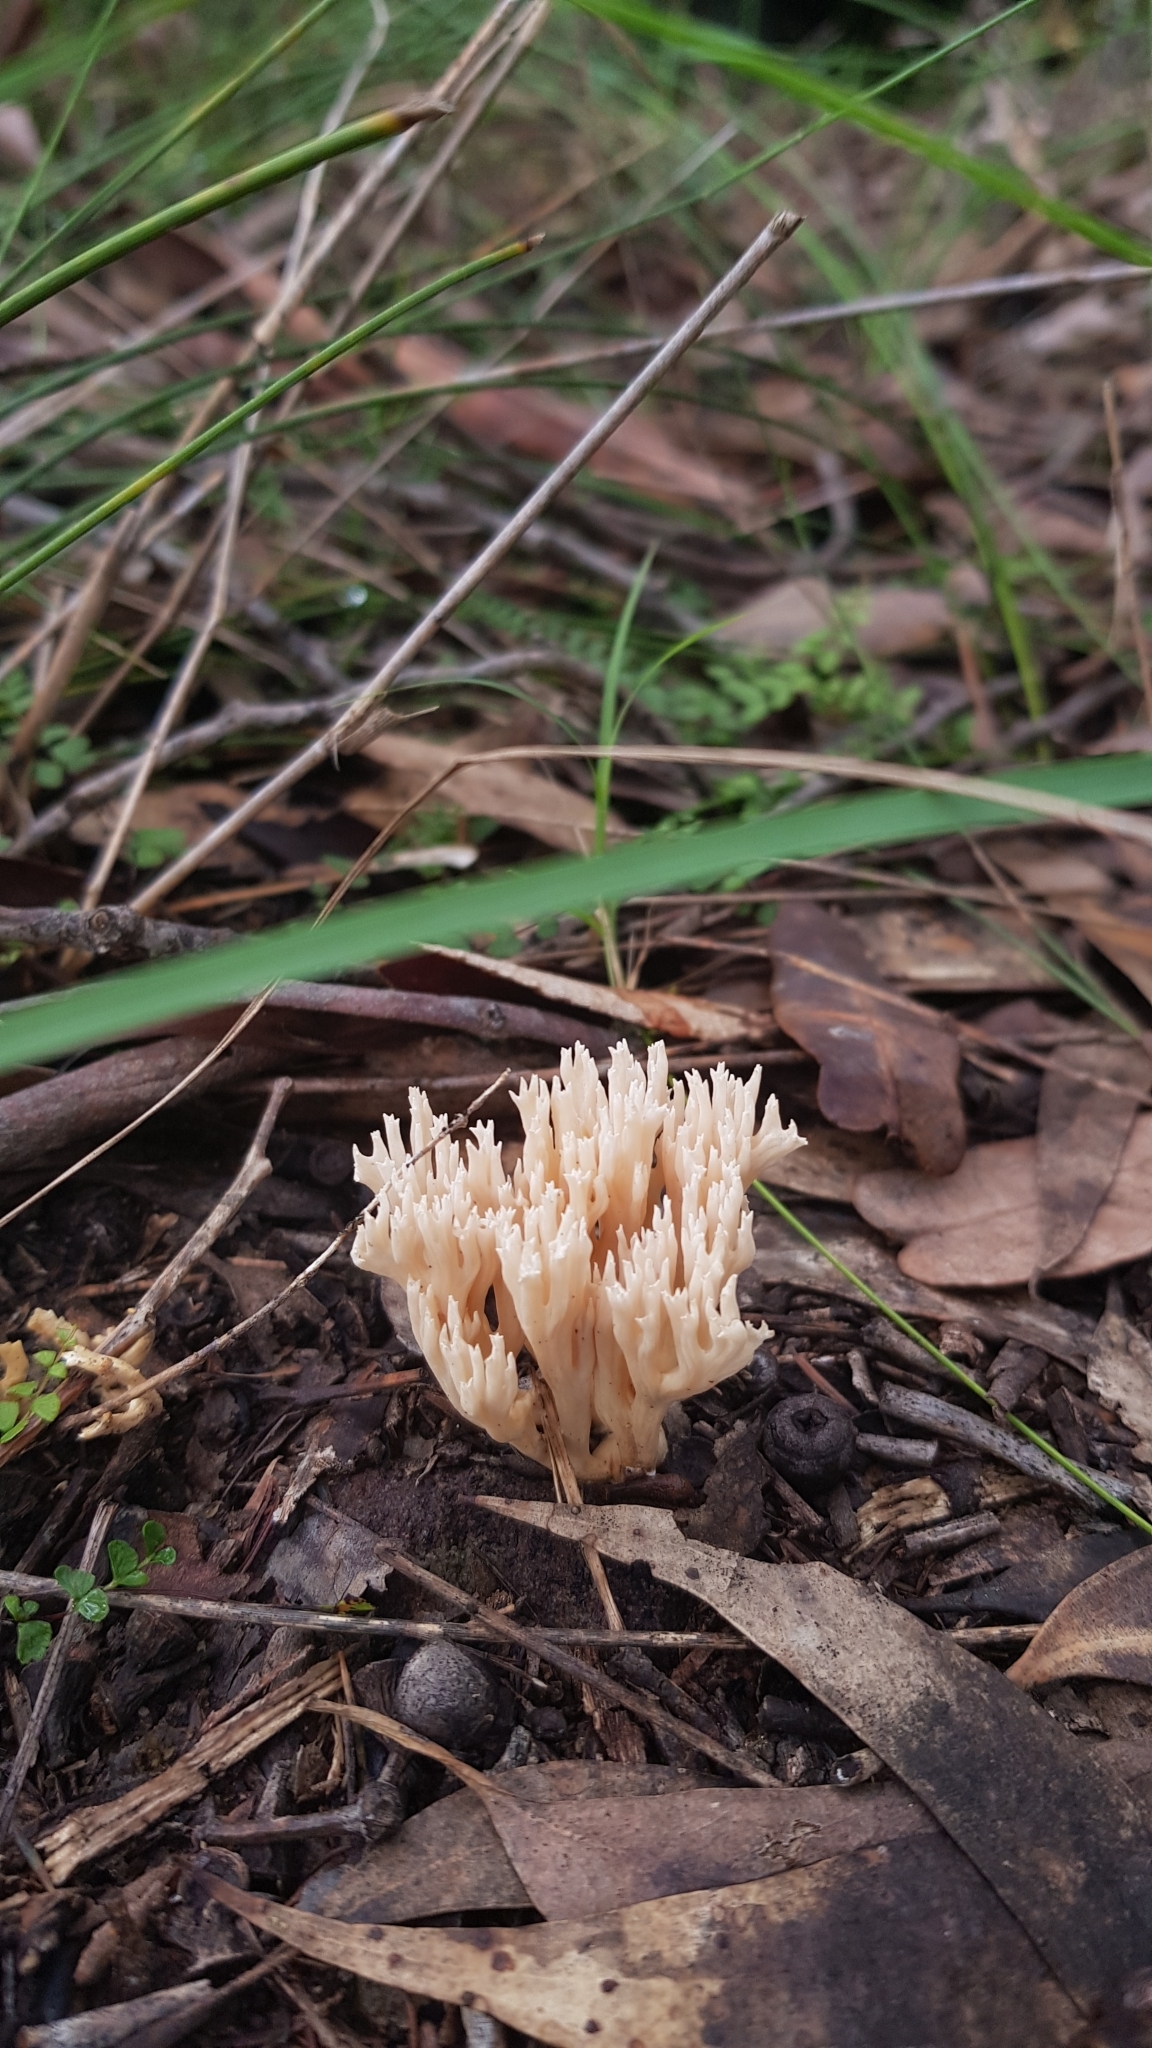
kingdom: Fungi
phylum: Basidiomycota
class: Agaricomycetes
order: Gomphales
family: Gomphaceae
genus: Ramaria
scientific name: Ramaria filicicola
